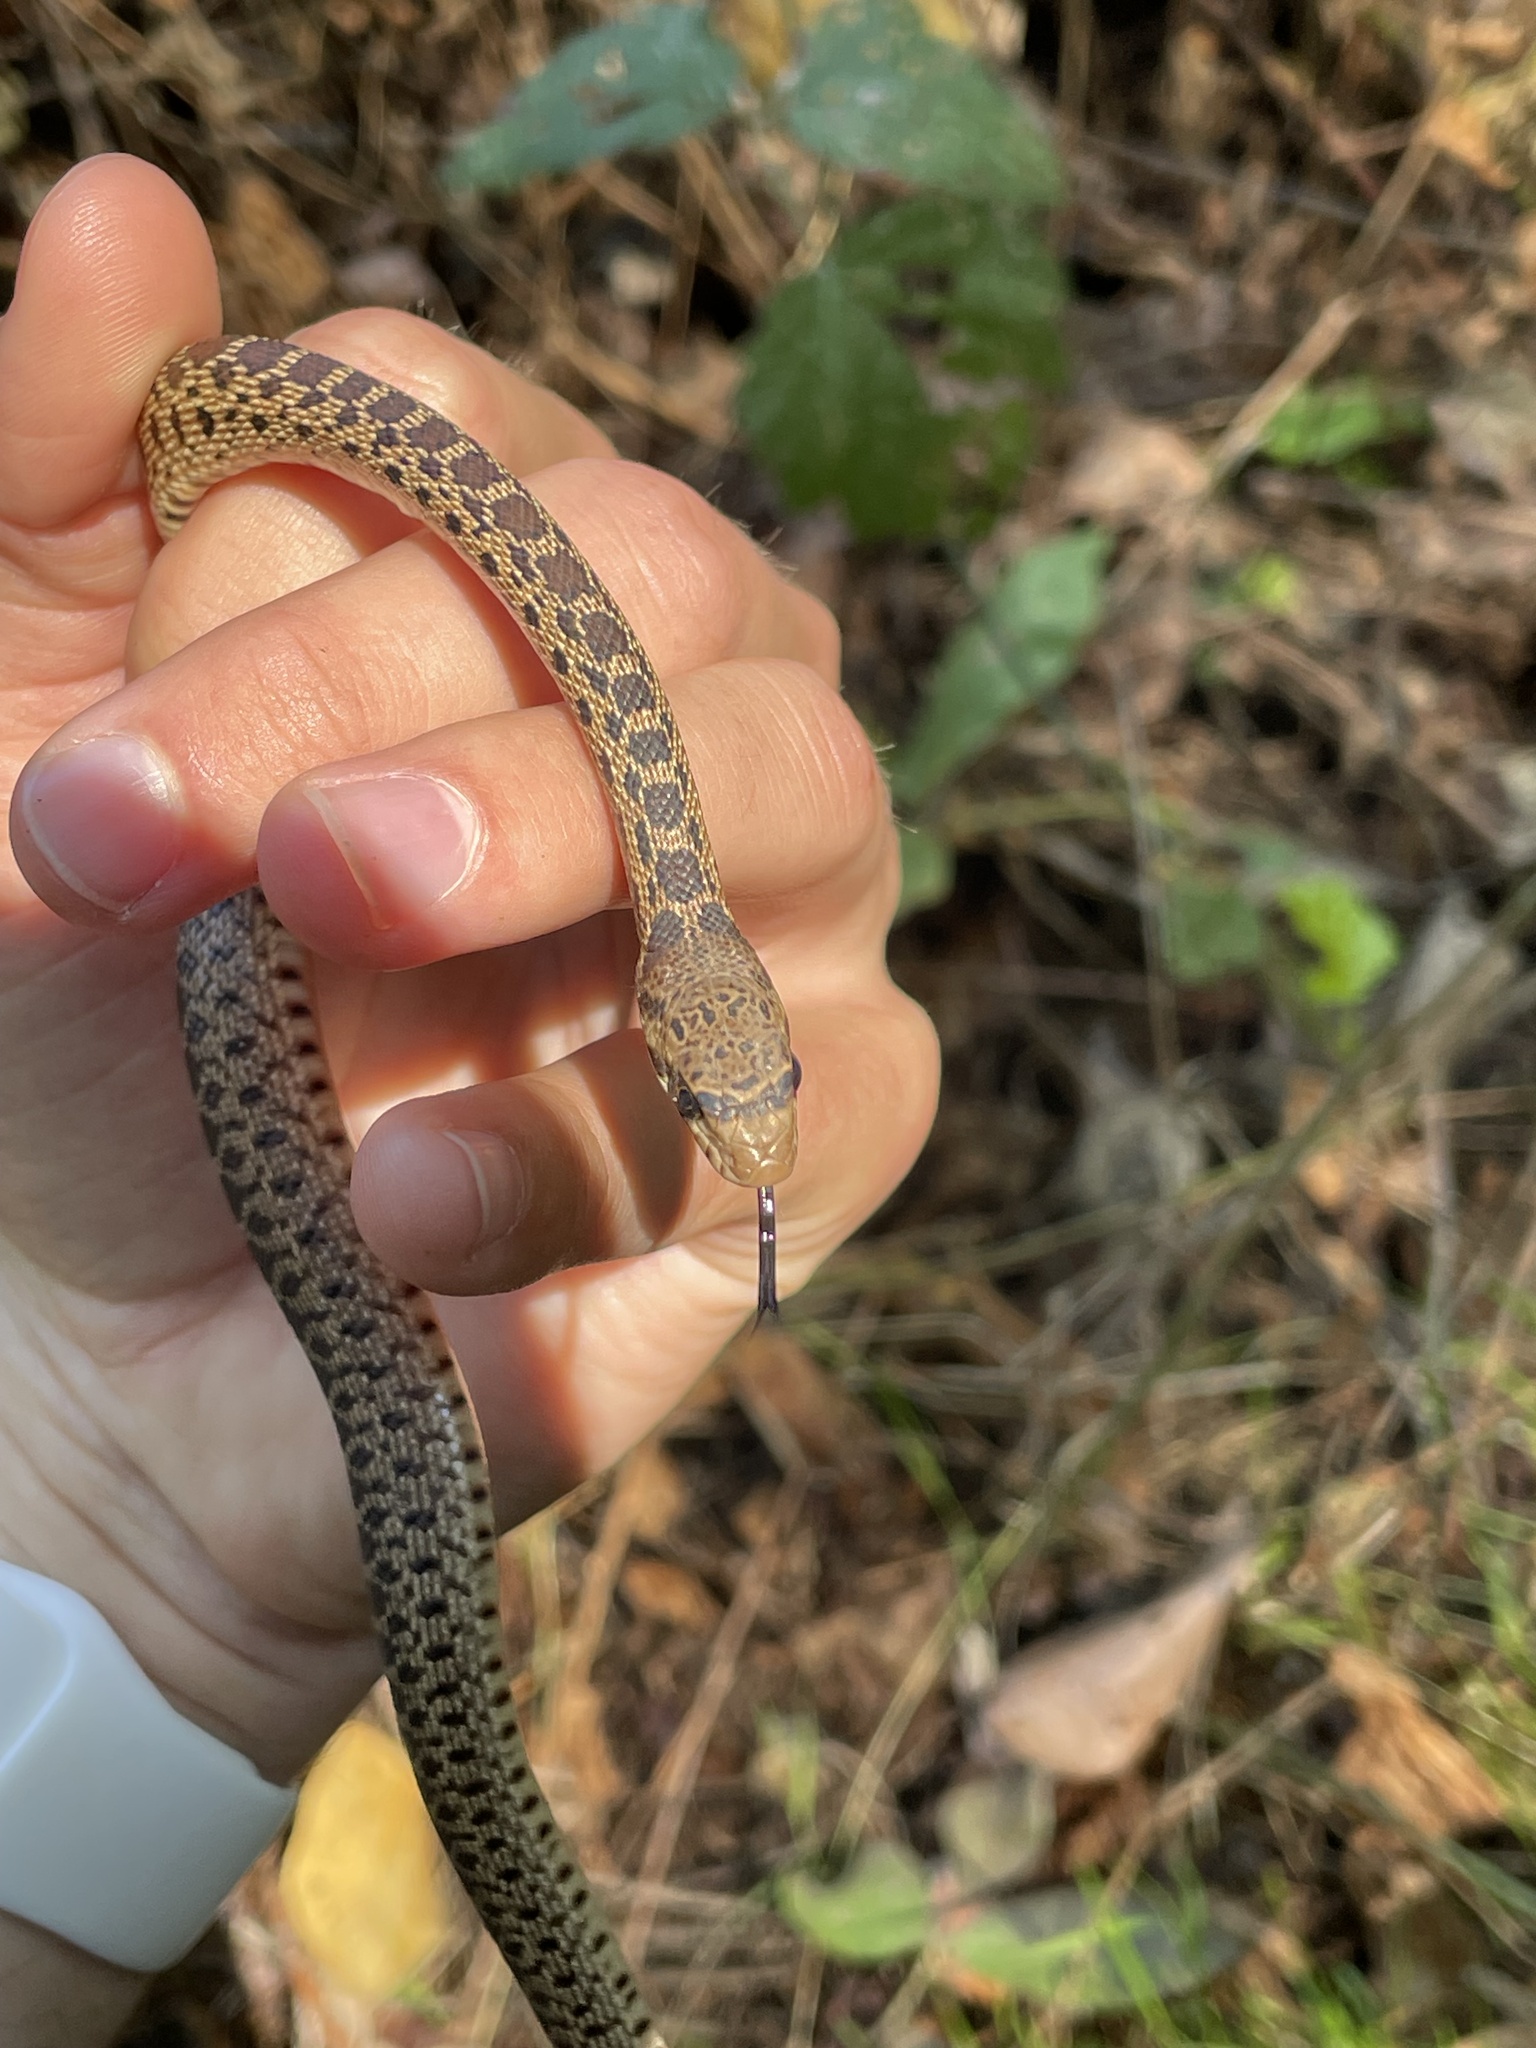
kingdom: Animalia
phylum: Chordata
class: Squamata
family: Colubridae
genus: Pituophis
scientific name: Pituophis catenifer
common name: Gopher snake
